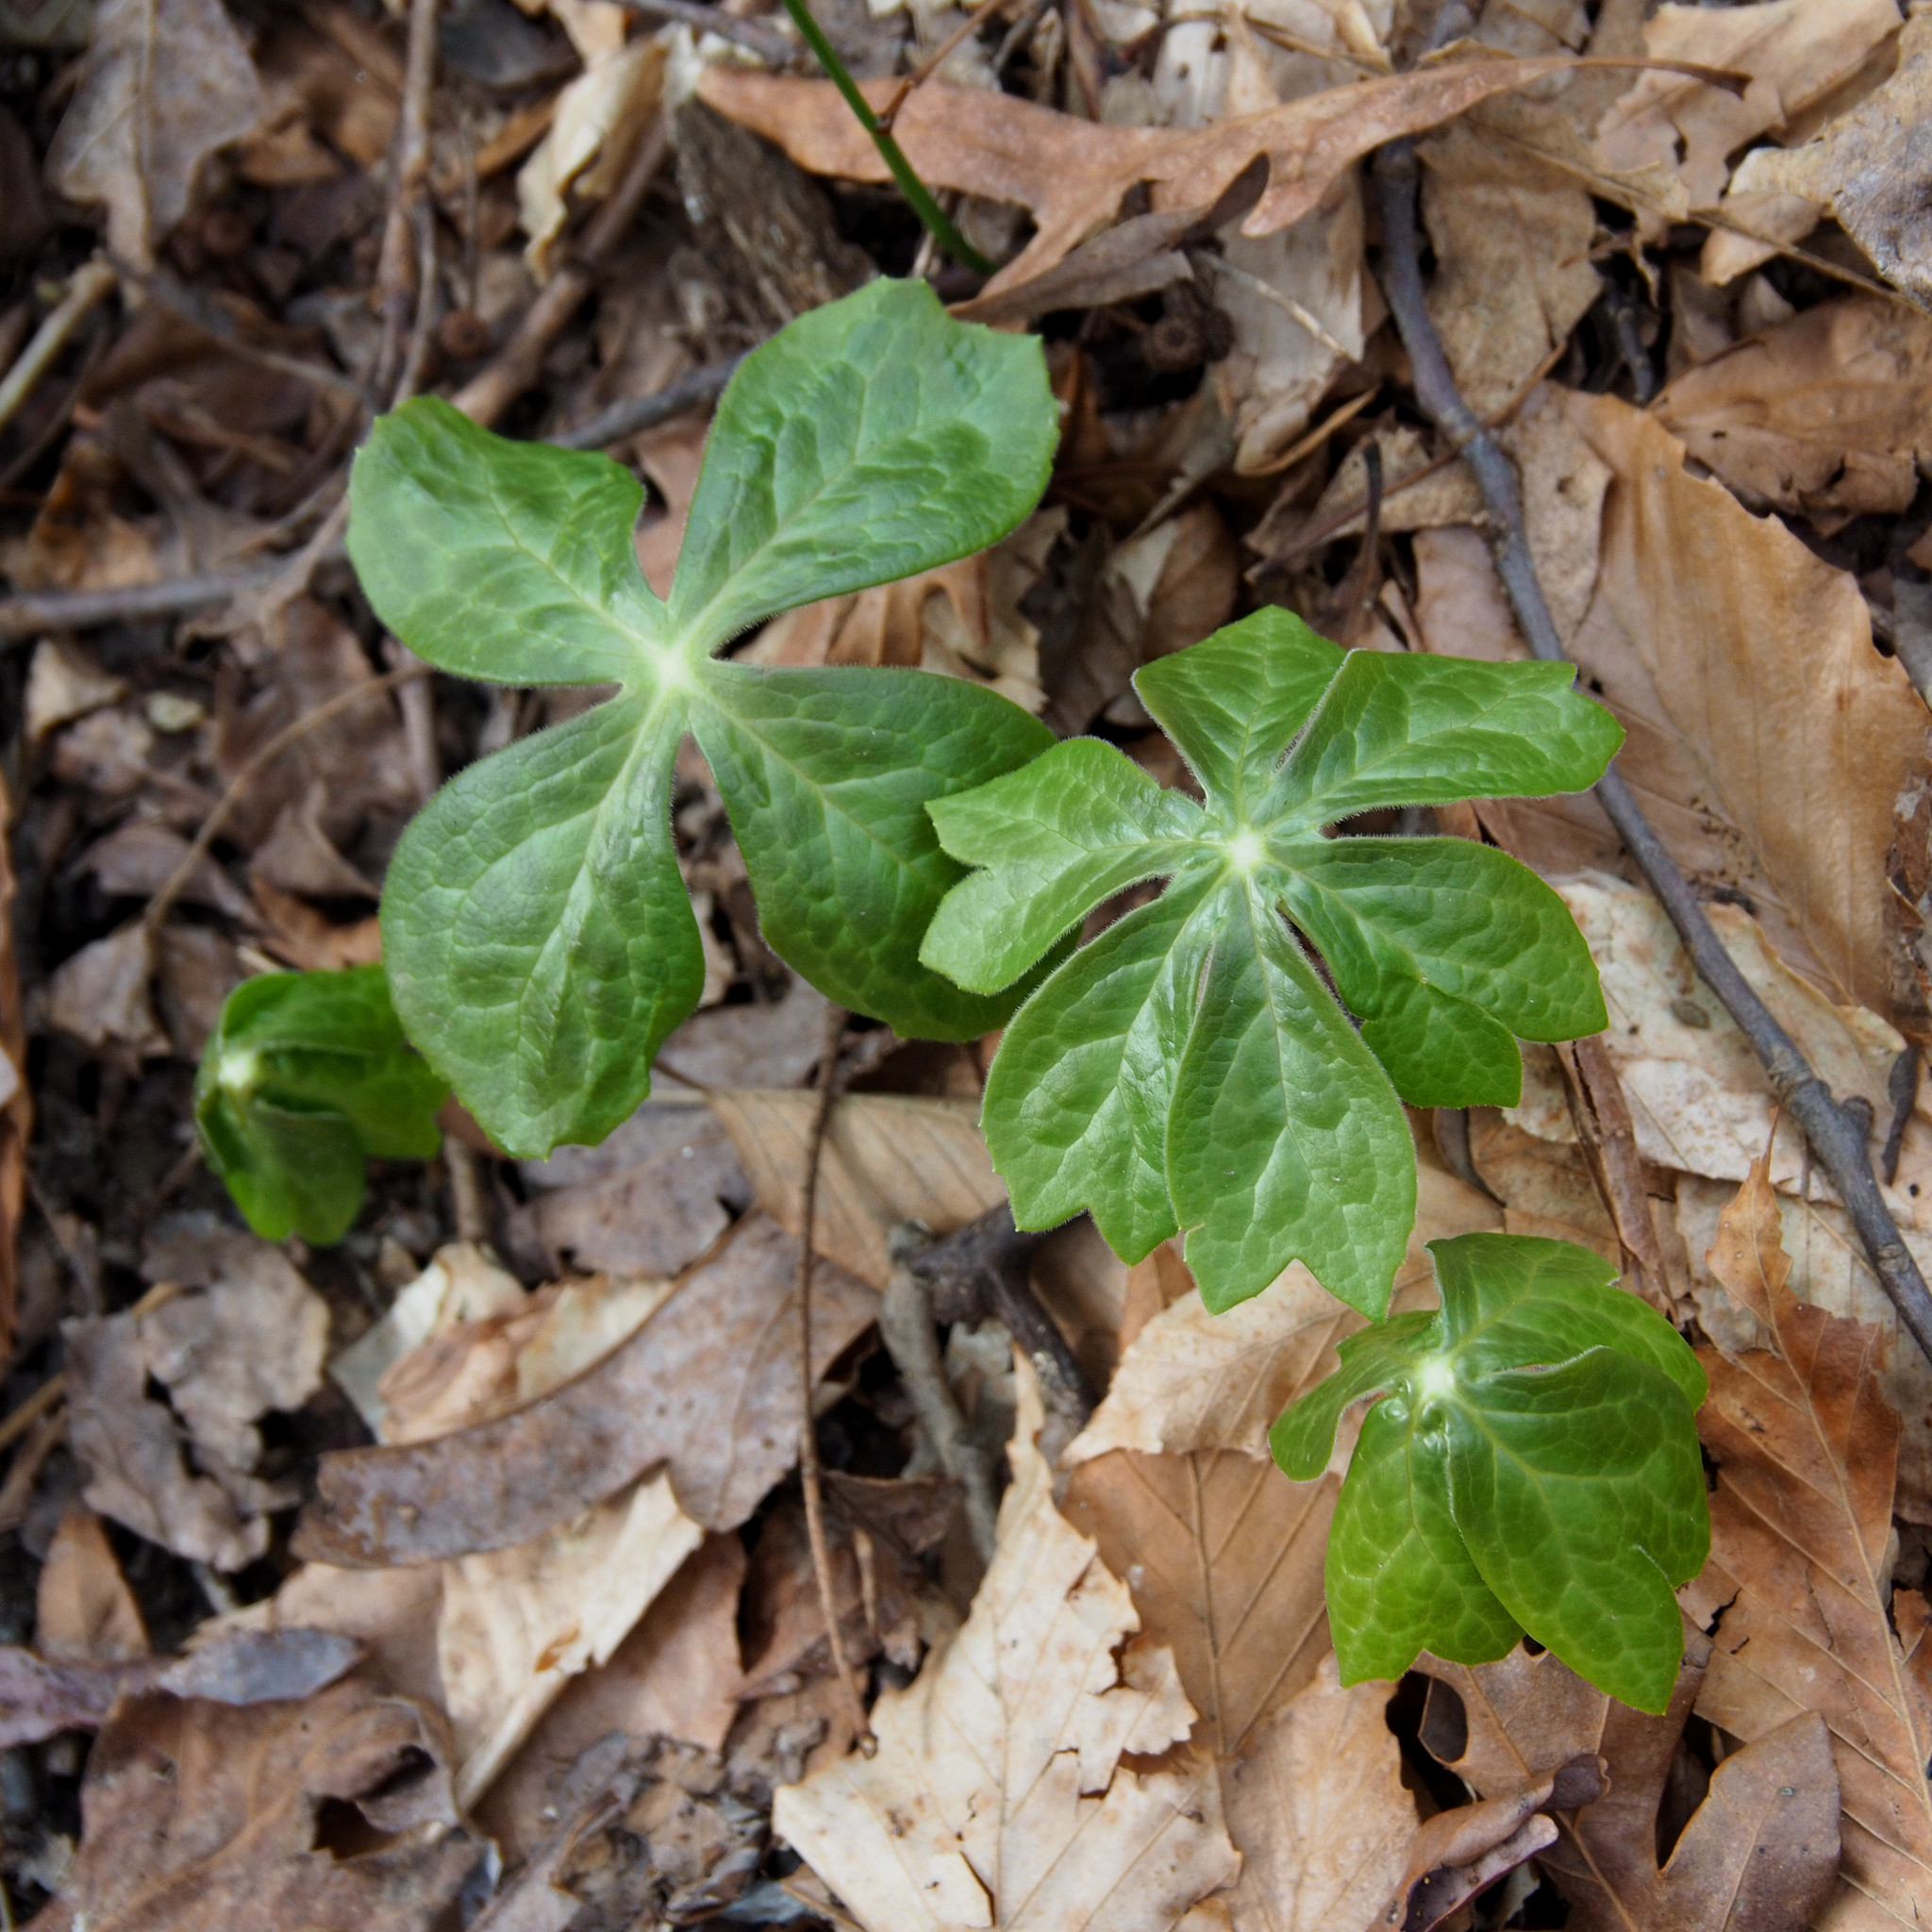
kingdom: Plantae
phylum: Tracheophyta
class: Magnoliopsida
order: Ranunculales
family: Berberidaceae
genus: Podophyllum
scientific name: Podophyllum peltatum
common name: Wild mandrake
